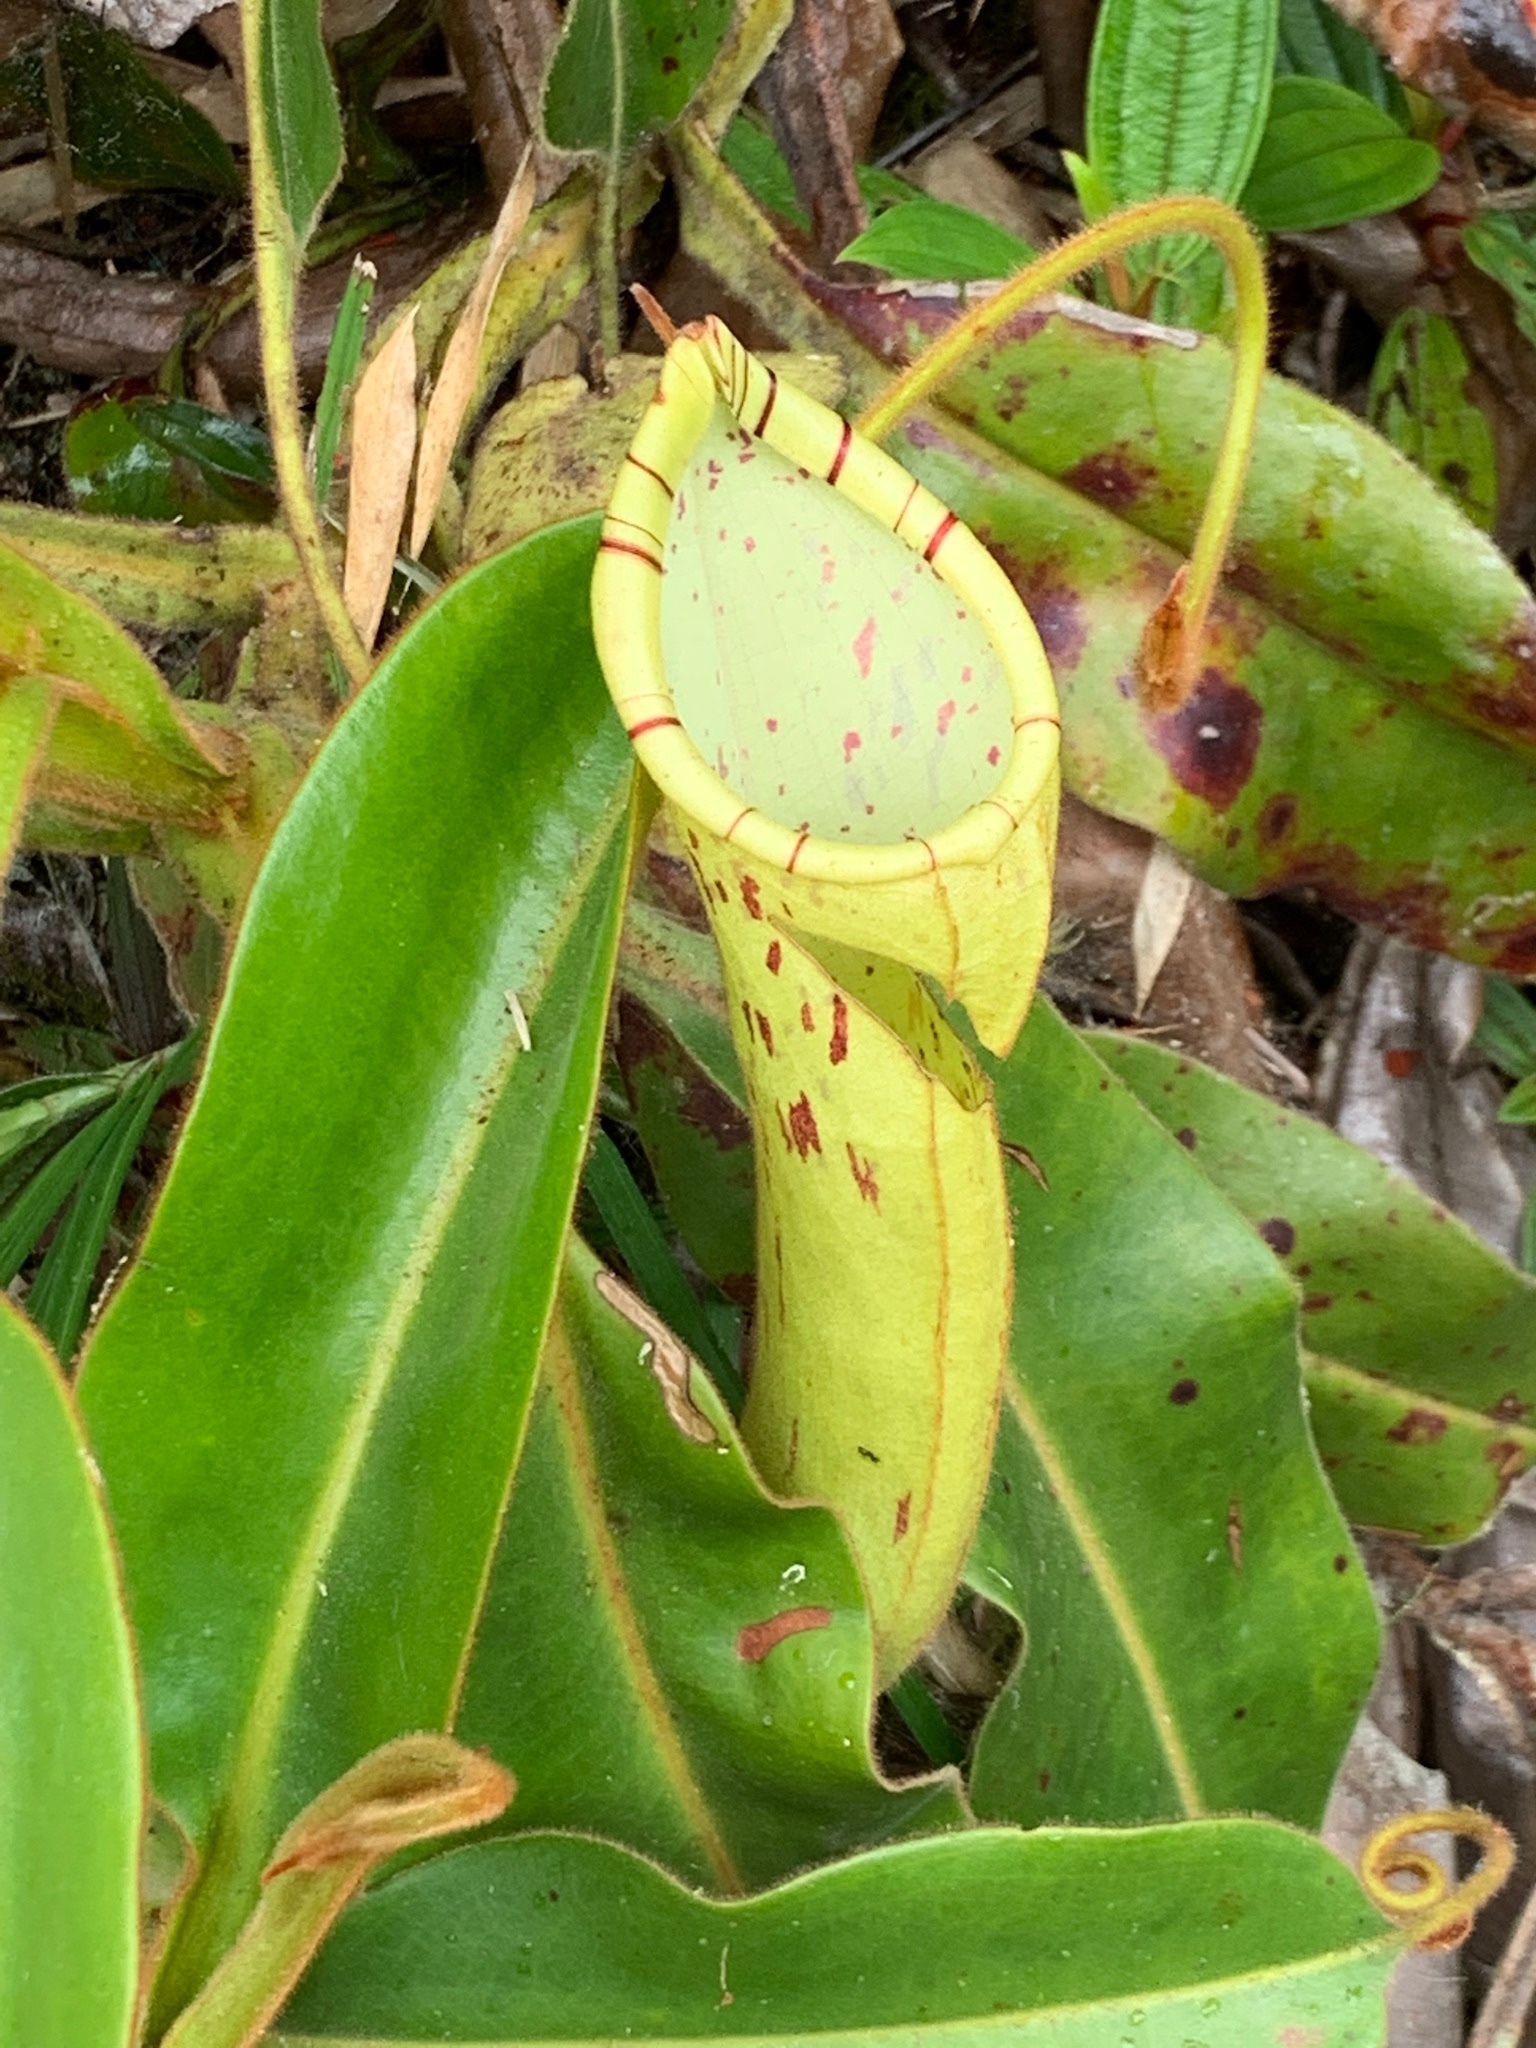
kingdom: Plantae
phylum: Tracheophyta
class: Magnoliopsida
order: Caryophyllales
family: Nepenthaceae
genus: Nepenthes
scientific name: Nepenthes chaniana
